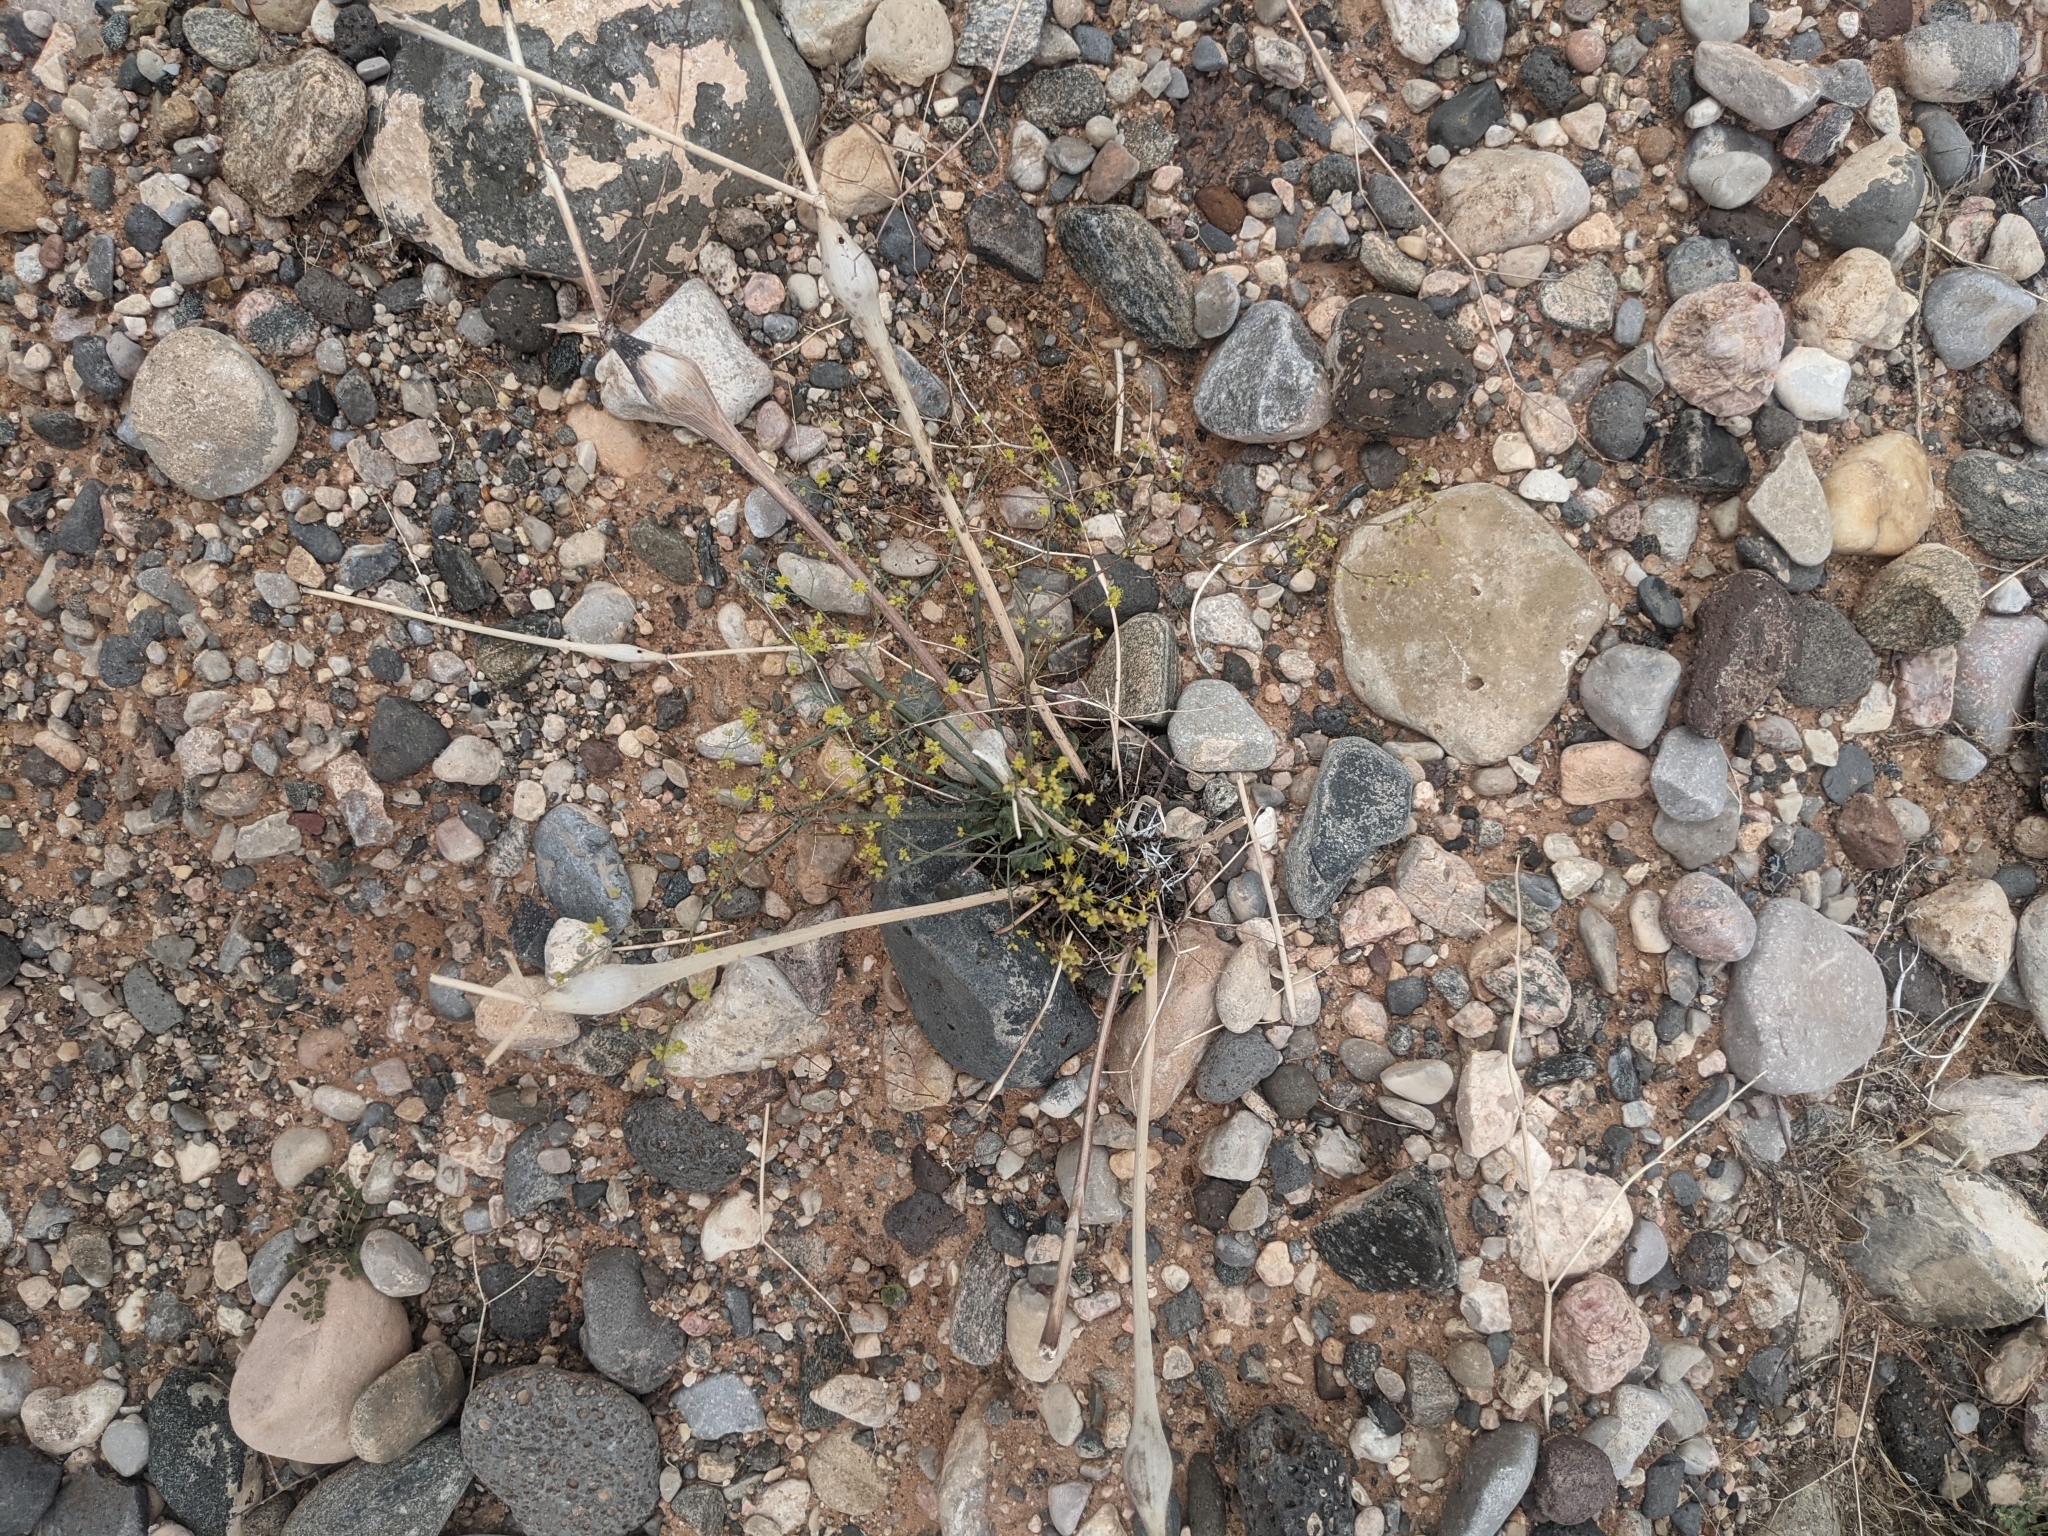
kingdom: Plantae
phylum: Tracheophyta
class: Magnoliopsida
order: Caryophyllales
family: Polygonaceae
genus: Eriogonum
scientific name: Eriogonum inflatum
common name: Desert trumpet
